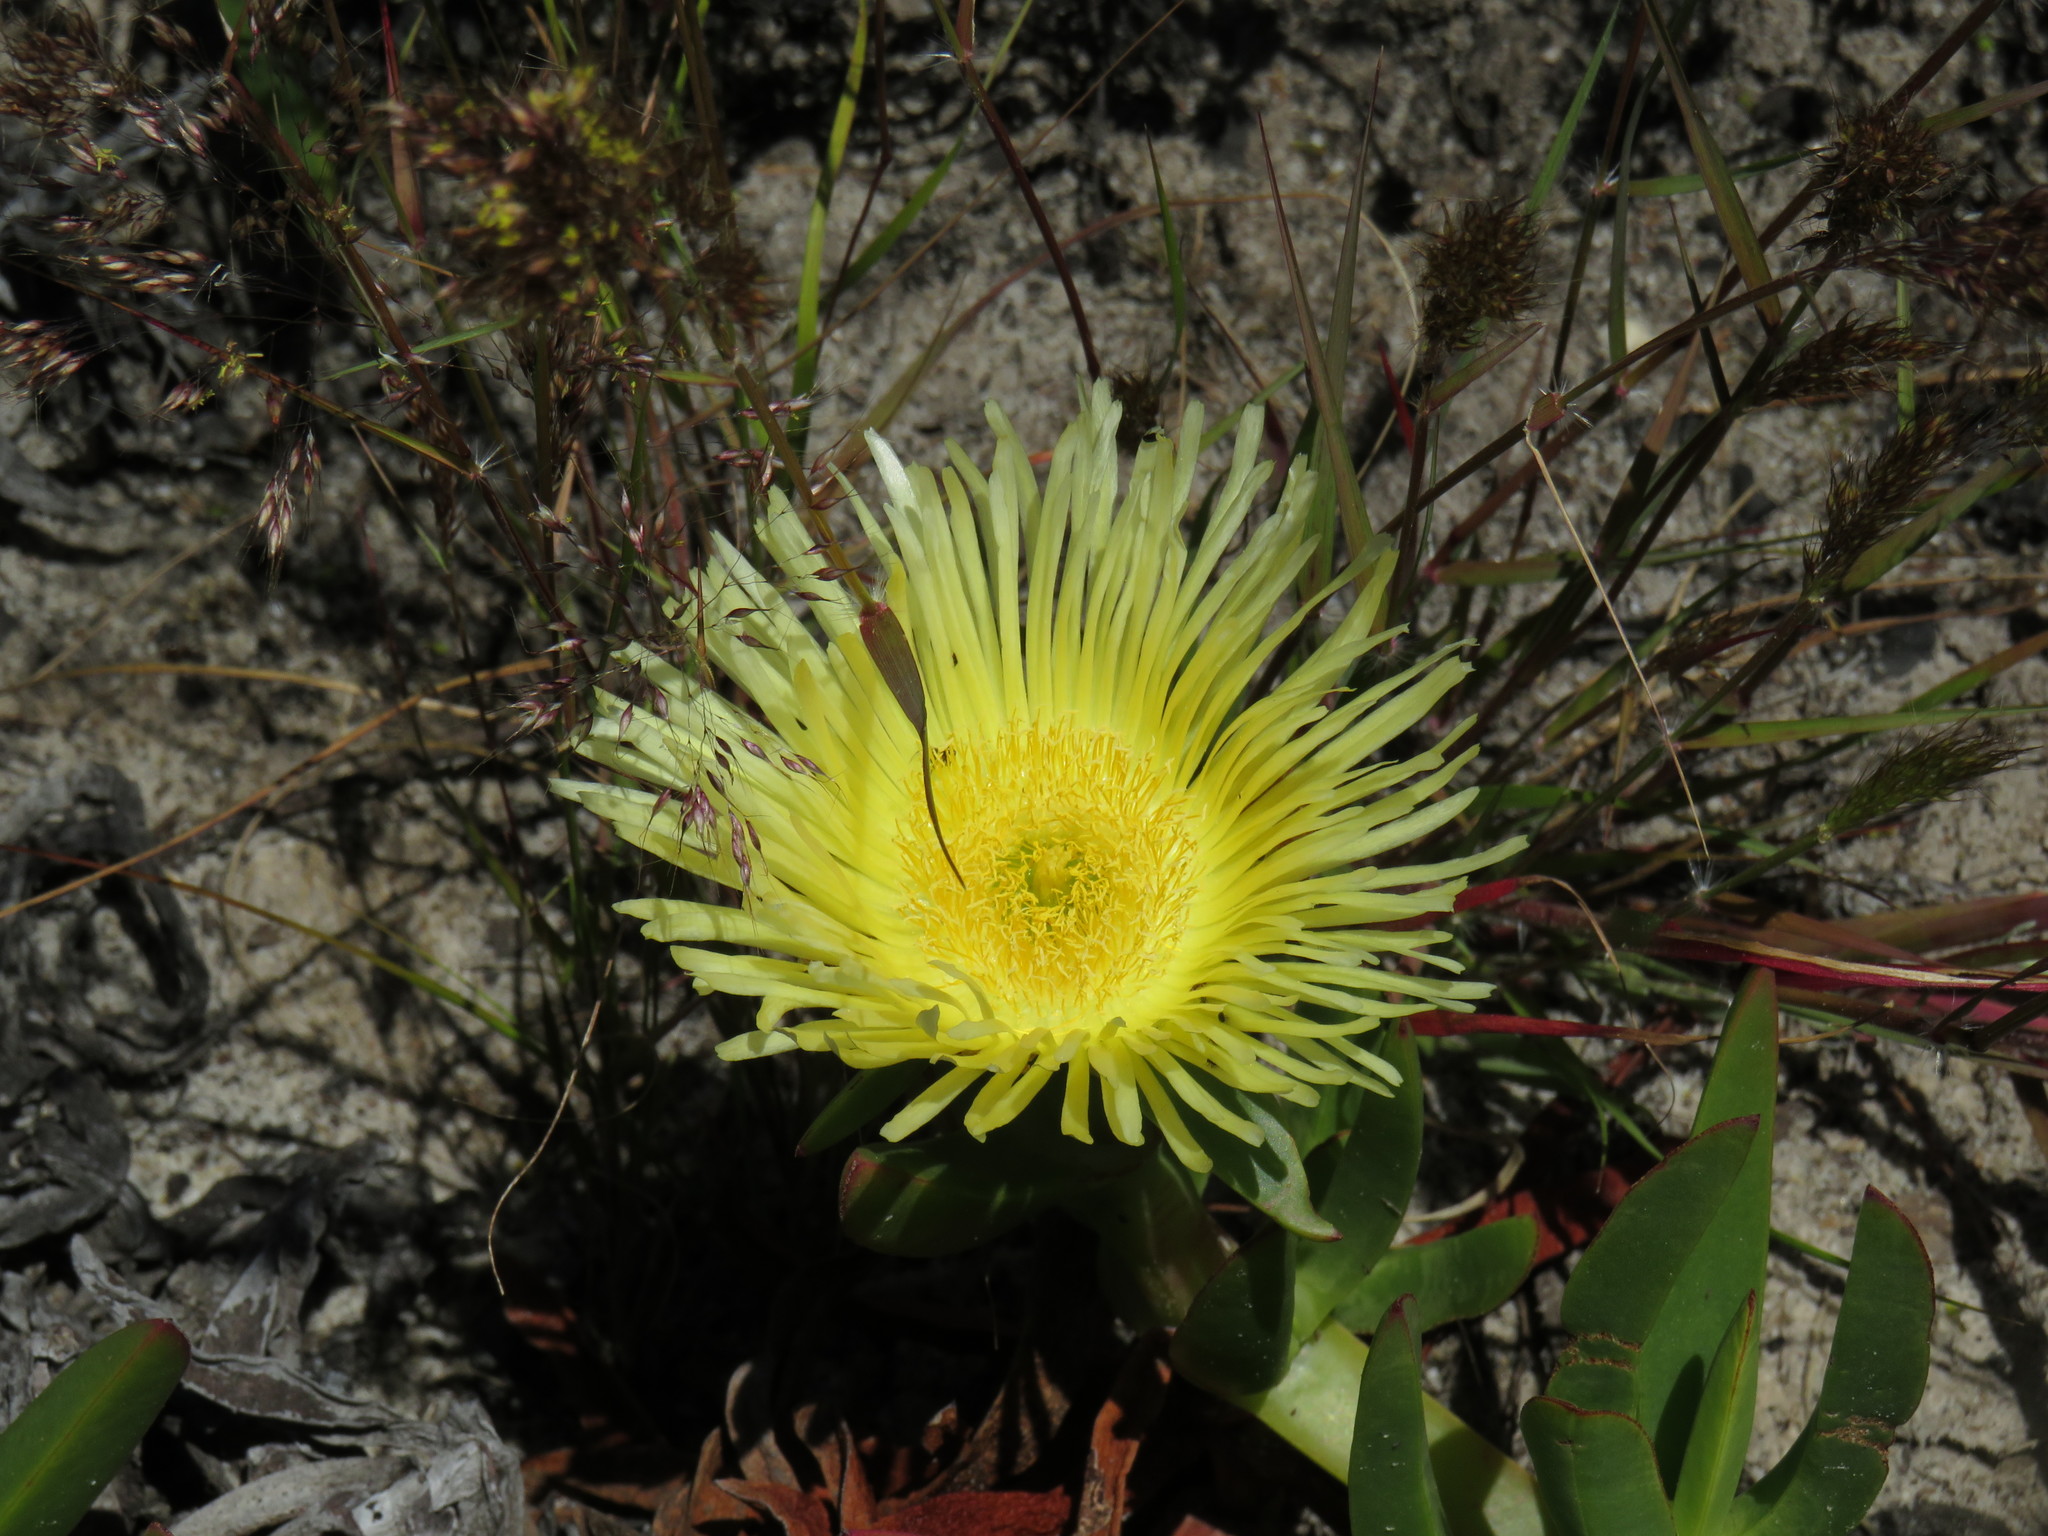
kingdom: Plantae
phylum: Tracheophyta
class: Magnoliopsida
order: Caryophyllales
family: Aizoaceae
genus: Carpobrotus
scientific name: Carpobrotus edulis
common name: Hottentot-fig
